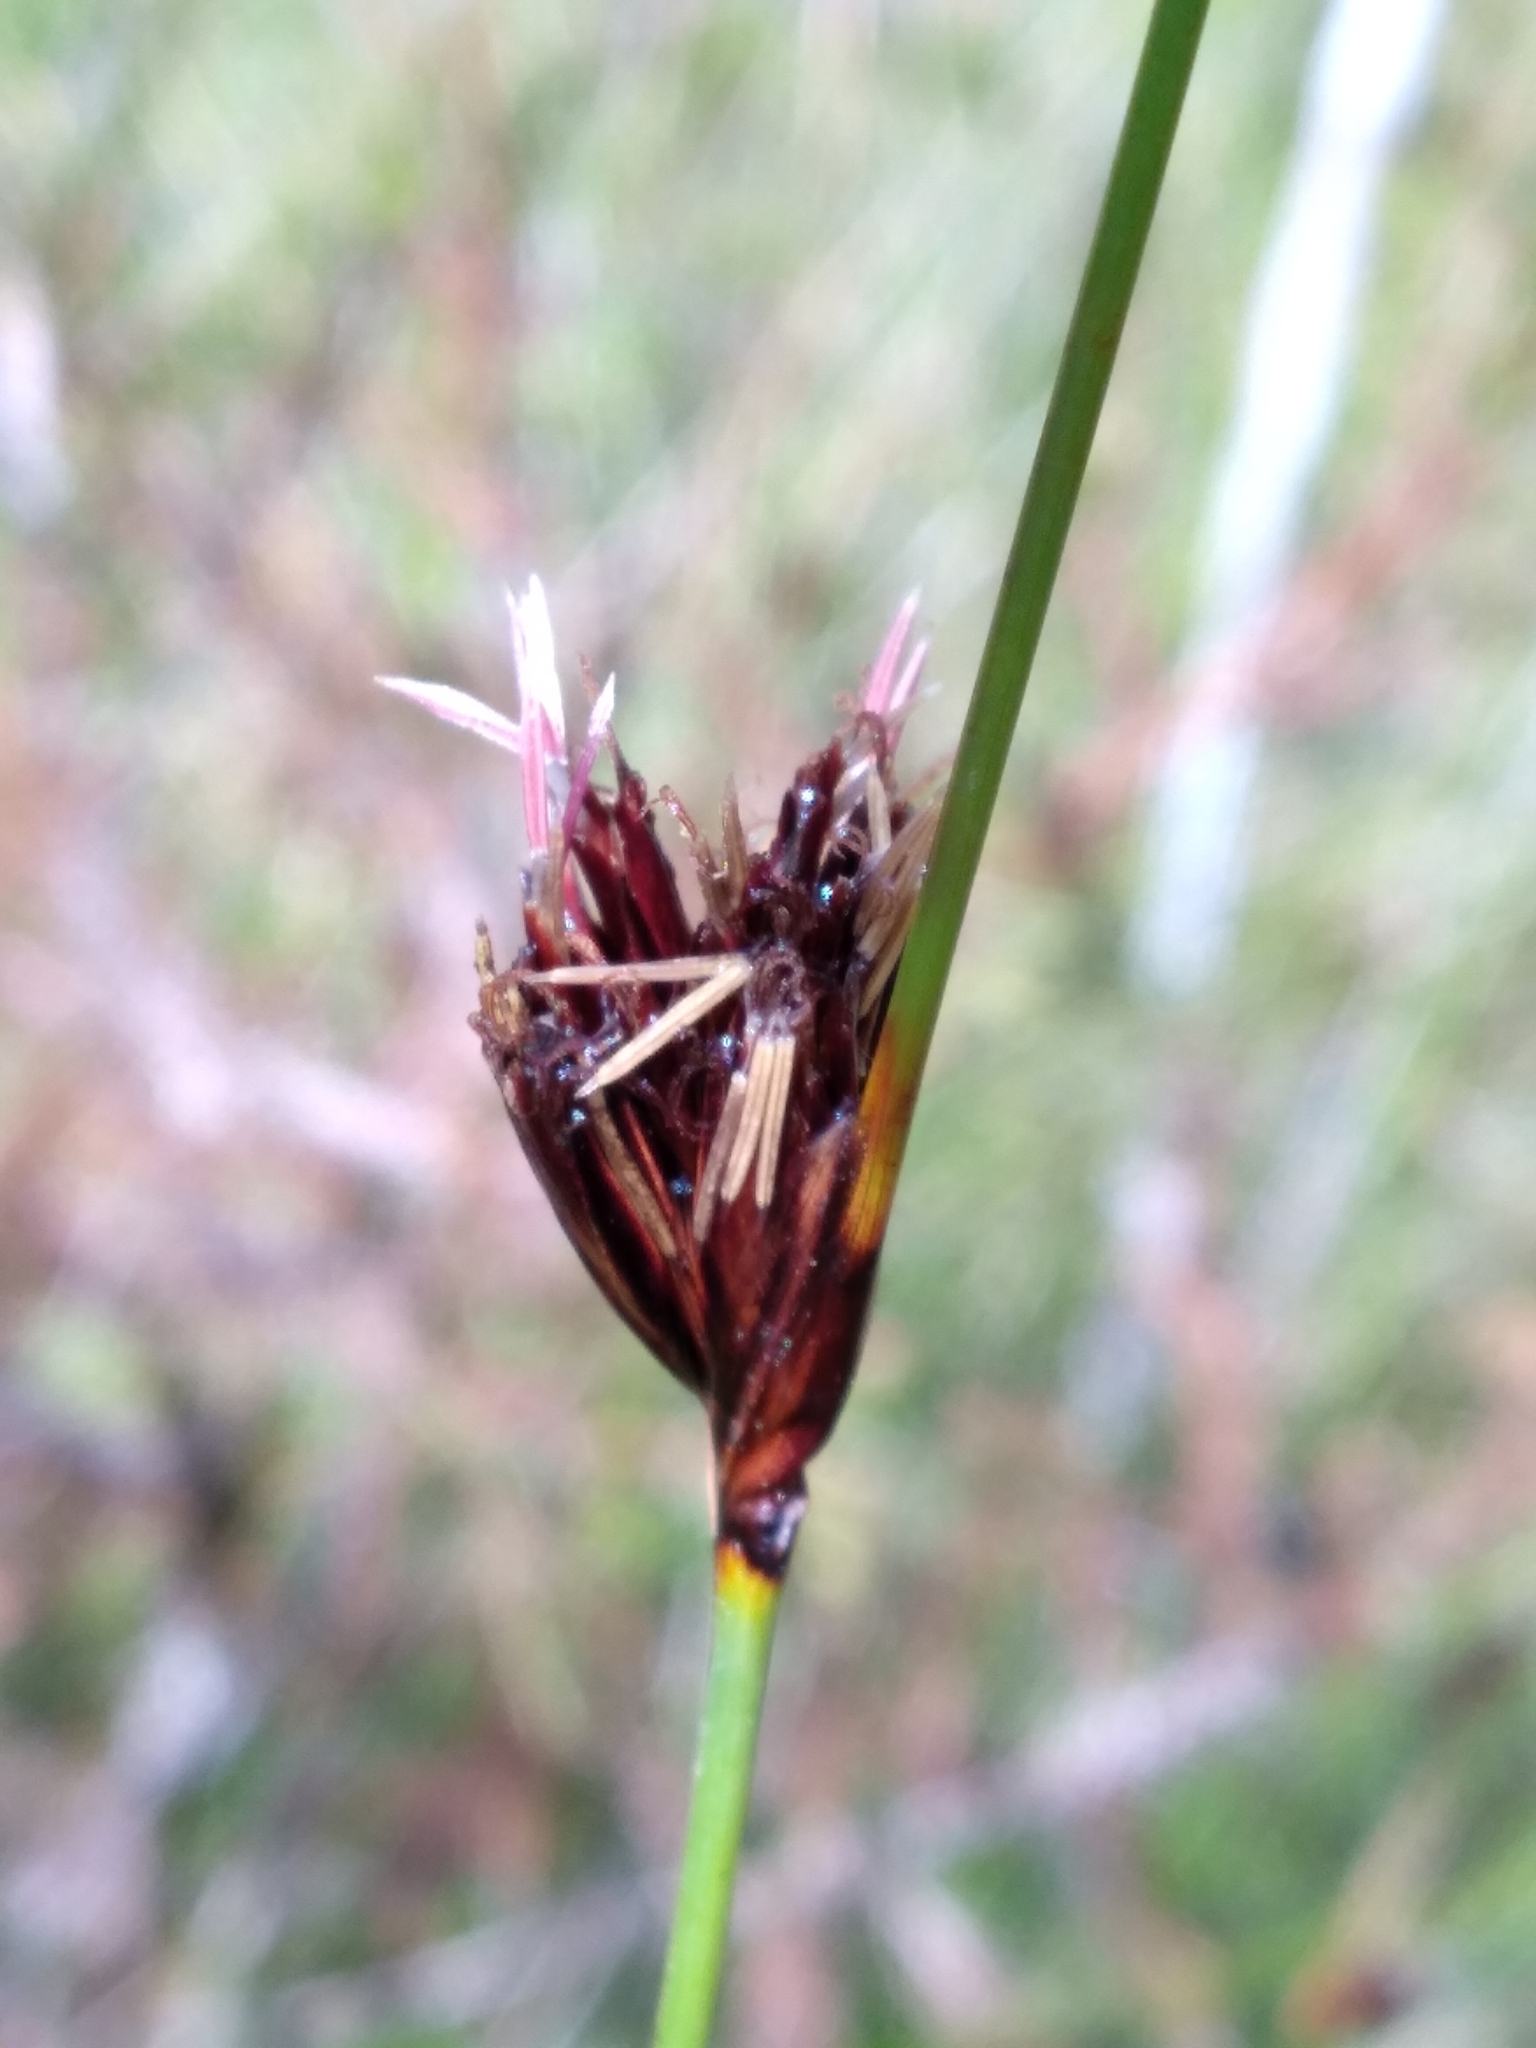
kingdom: Plantae
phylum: Tracheophyta
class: Liliopsida
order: Poales
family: Cyperaceae
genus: Schoenus
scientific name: Schoenus nigricans
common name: Black bog-rush
